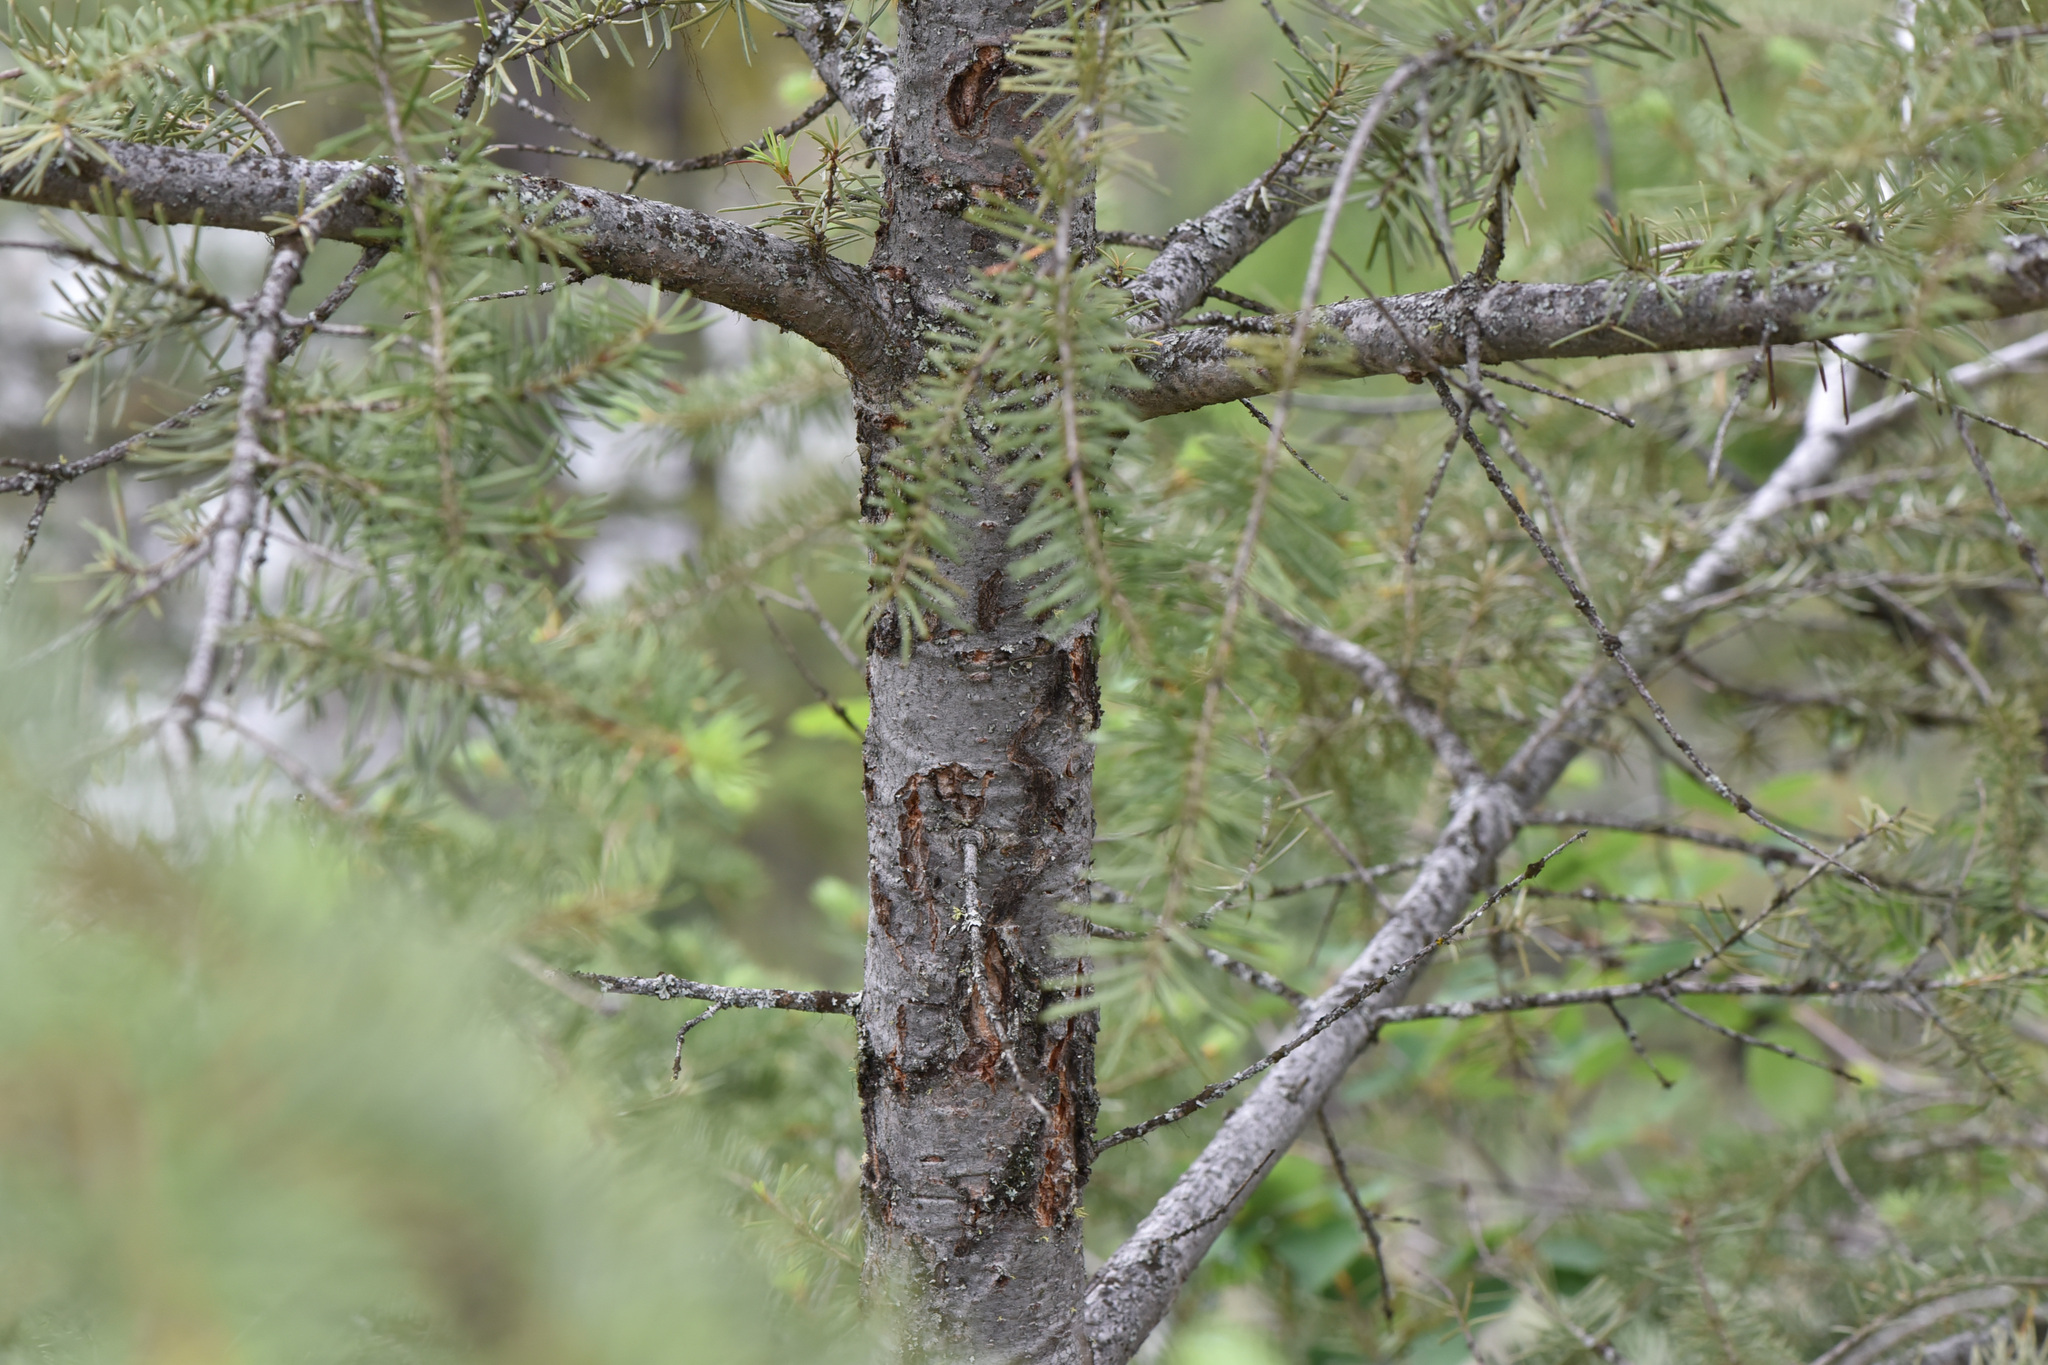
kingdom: Plantae
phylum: Tracheophyta
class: Pinopsida
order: Pinales
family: Pinaceae
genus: Pseudotsuga
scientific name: Pseudotsuga menziesii
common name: Douglas fir
